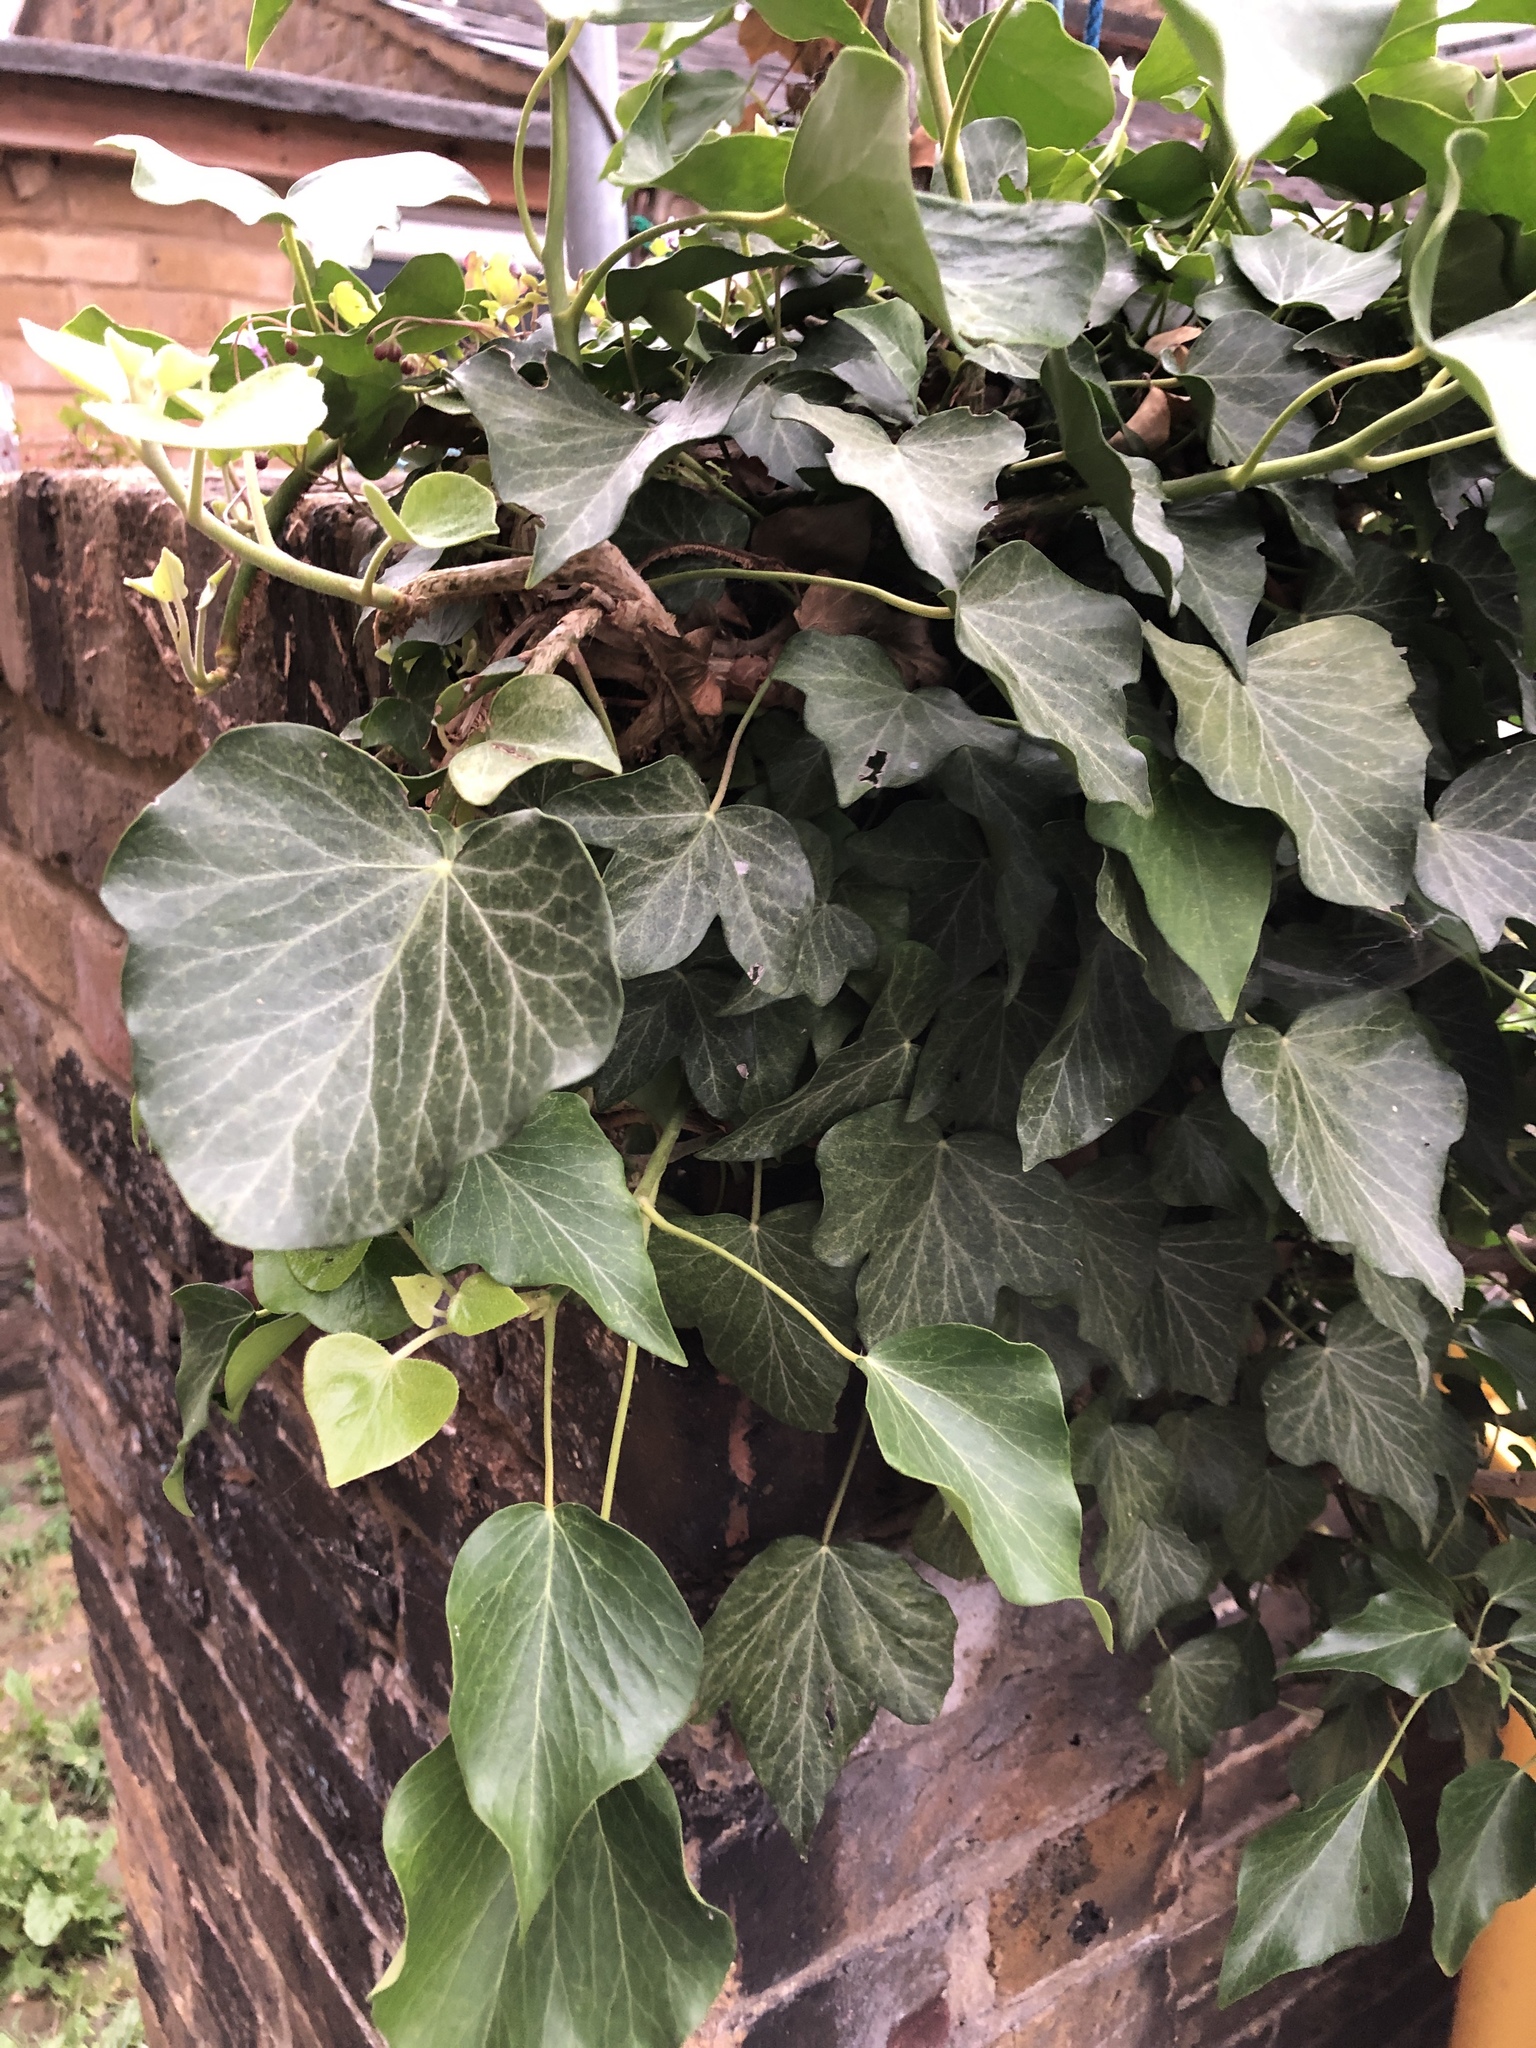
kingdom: Plantae
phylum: Tracheophyta
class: Magnoliopsida
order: Apiales
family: Araliaceae
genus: Hedera
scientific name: Hedera helix
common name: Ivy
